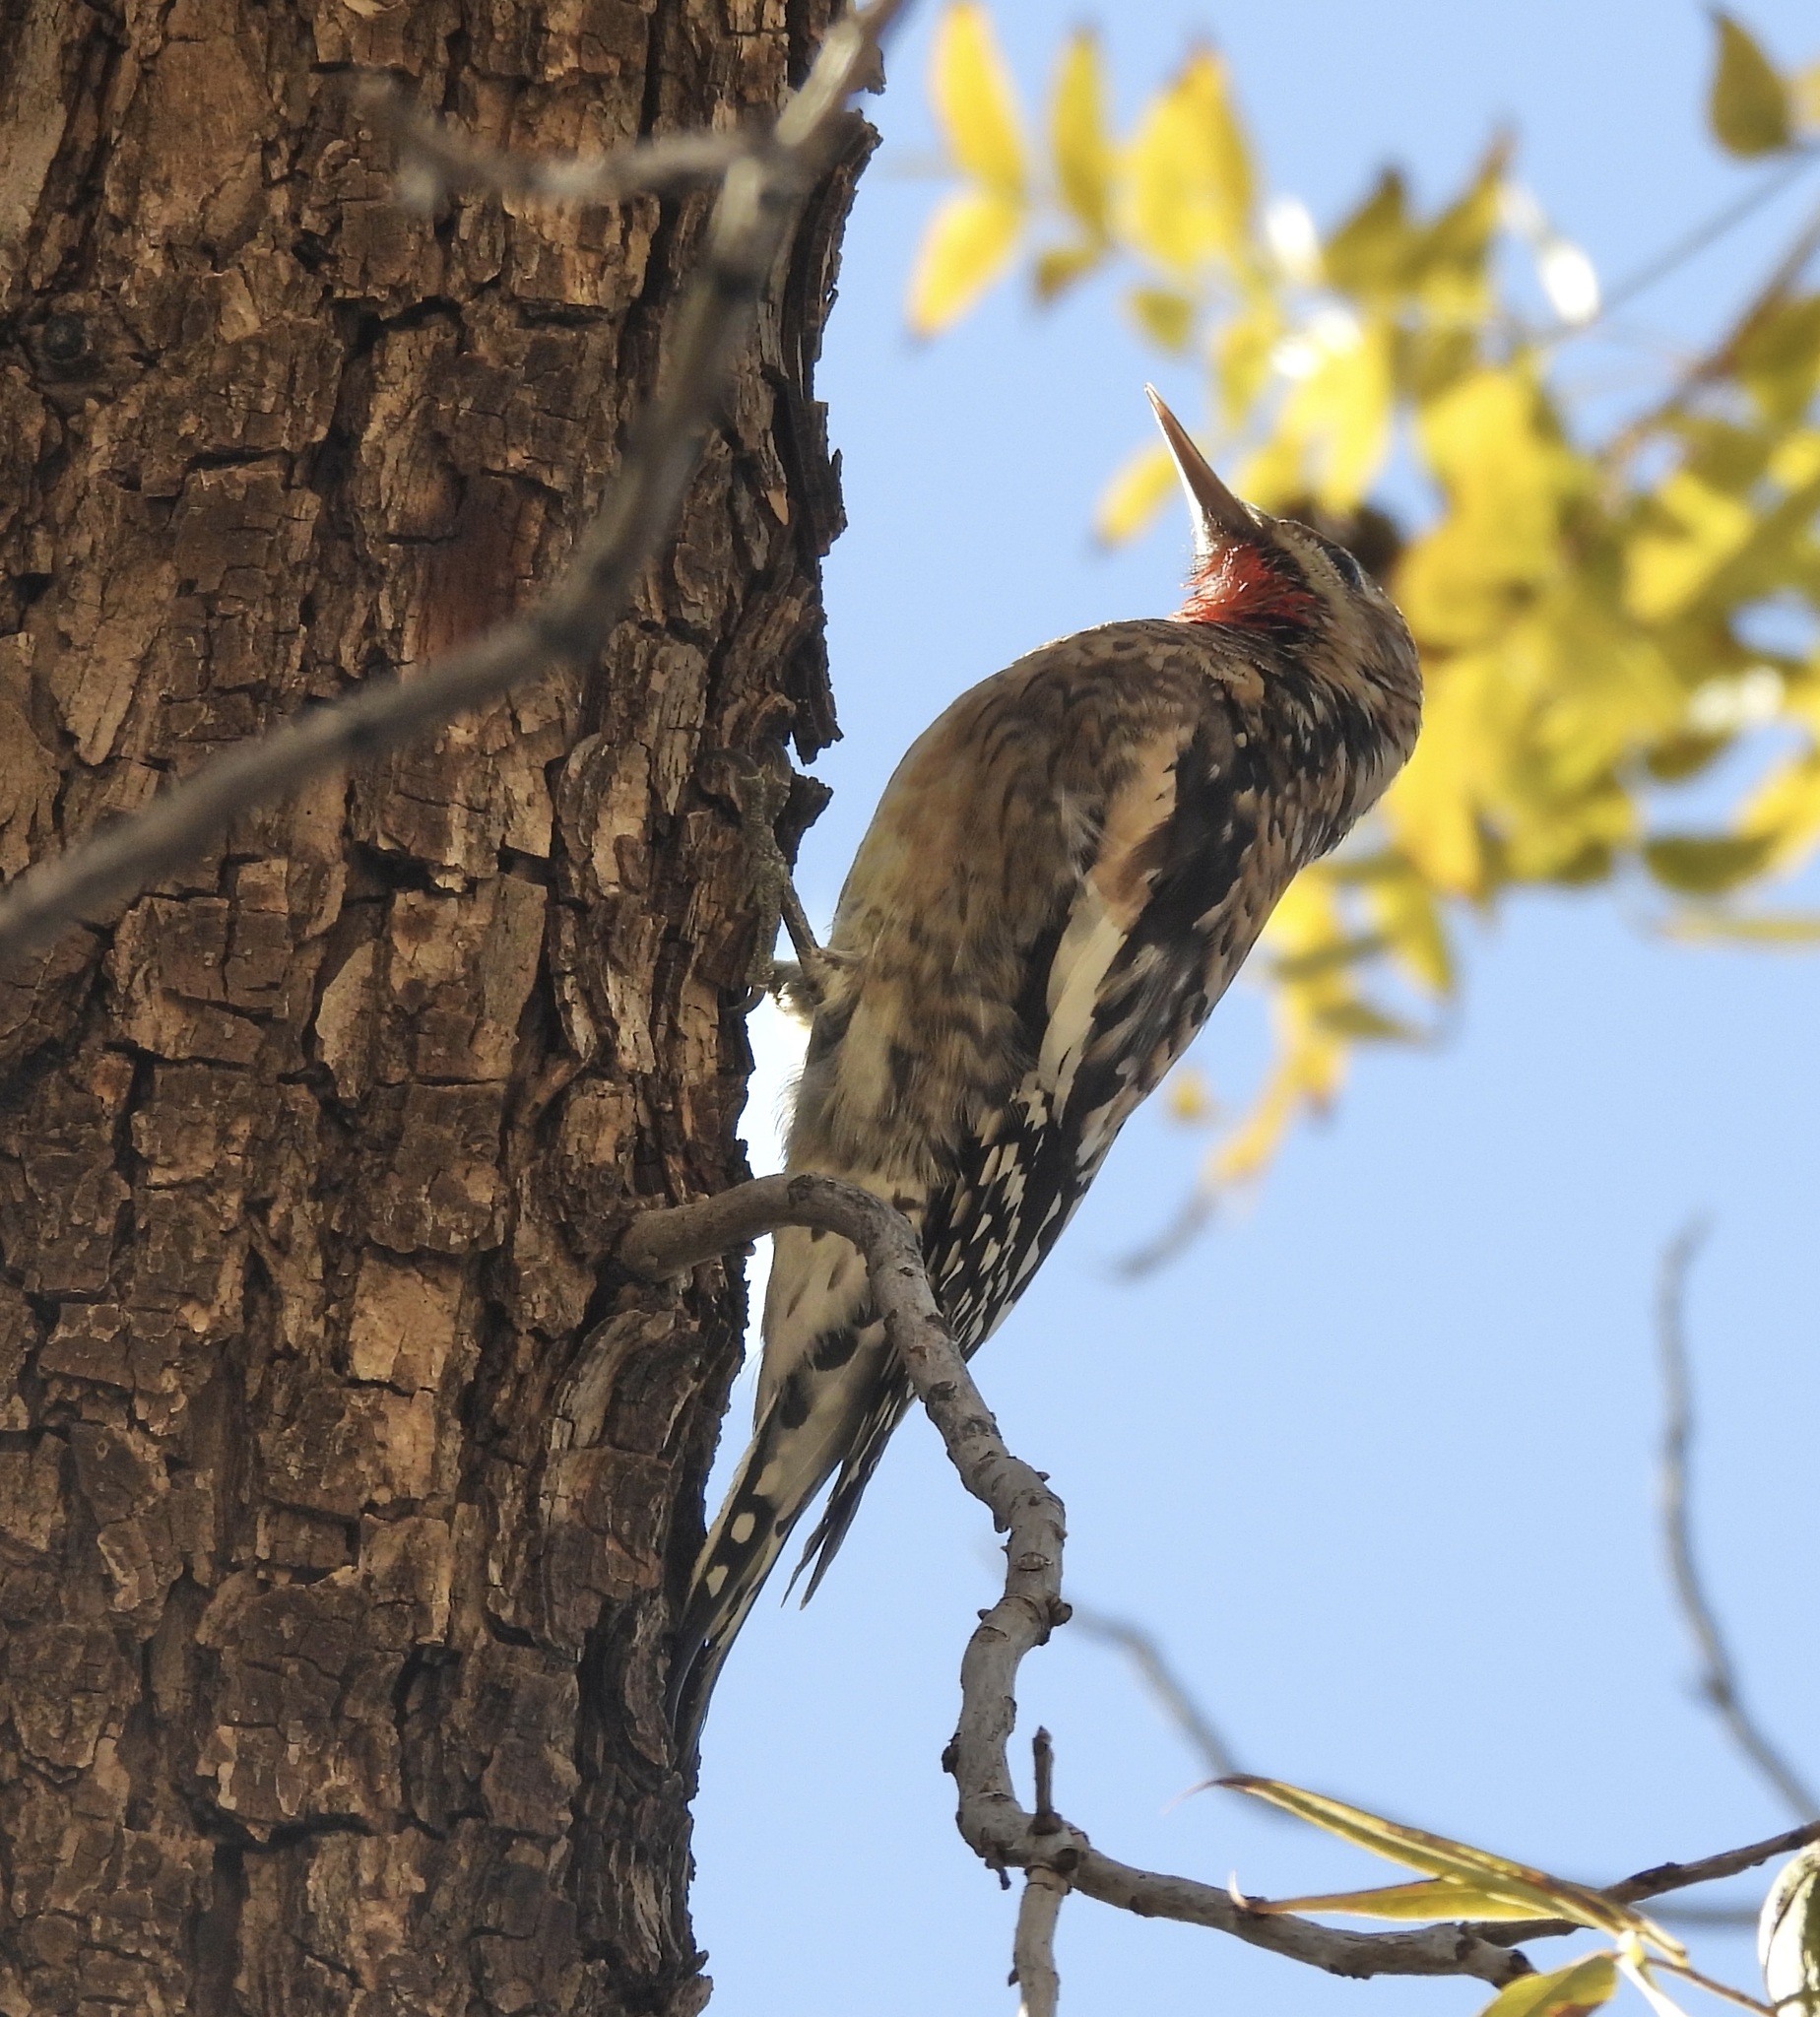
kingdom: Animalia
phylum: Chordata
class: Aves
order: Piciformes
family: Picidae
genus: Sphyrapicus
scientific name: Sphyrapicus varius
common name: Yellow-bellied sapsucker
